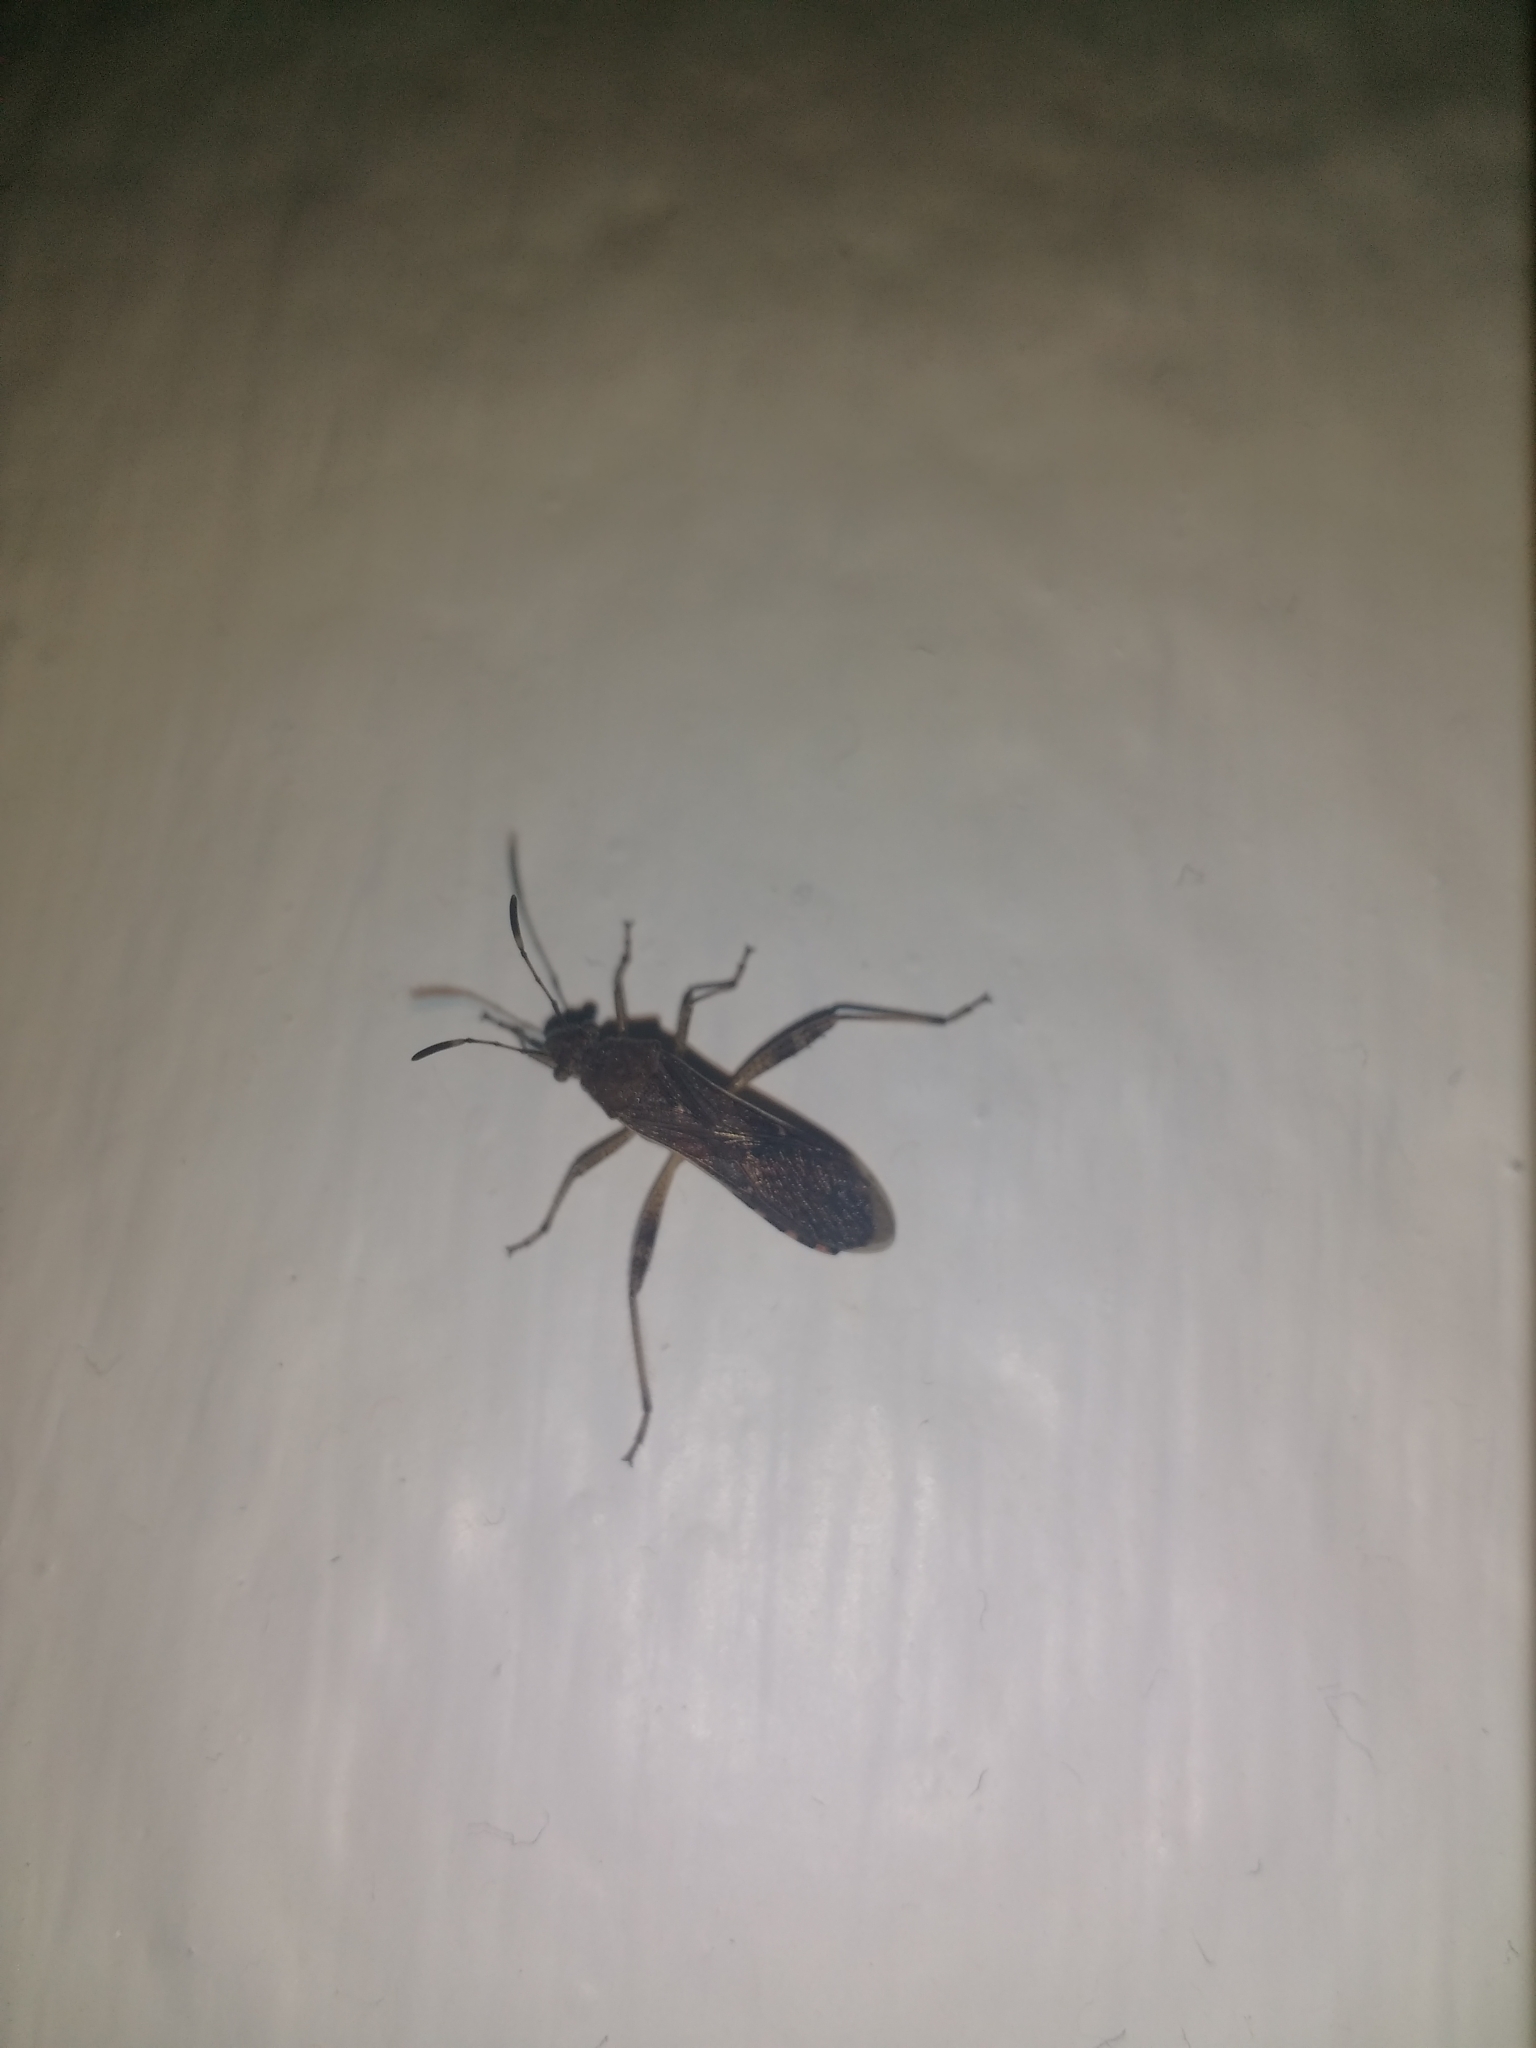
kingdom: Animalia
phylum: Arthropoda
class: Insecta
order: Hemiptera
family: Alydidae
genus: Burtinus
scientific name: Burtinus notatipennis
